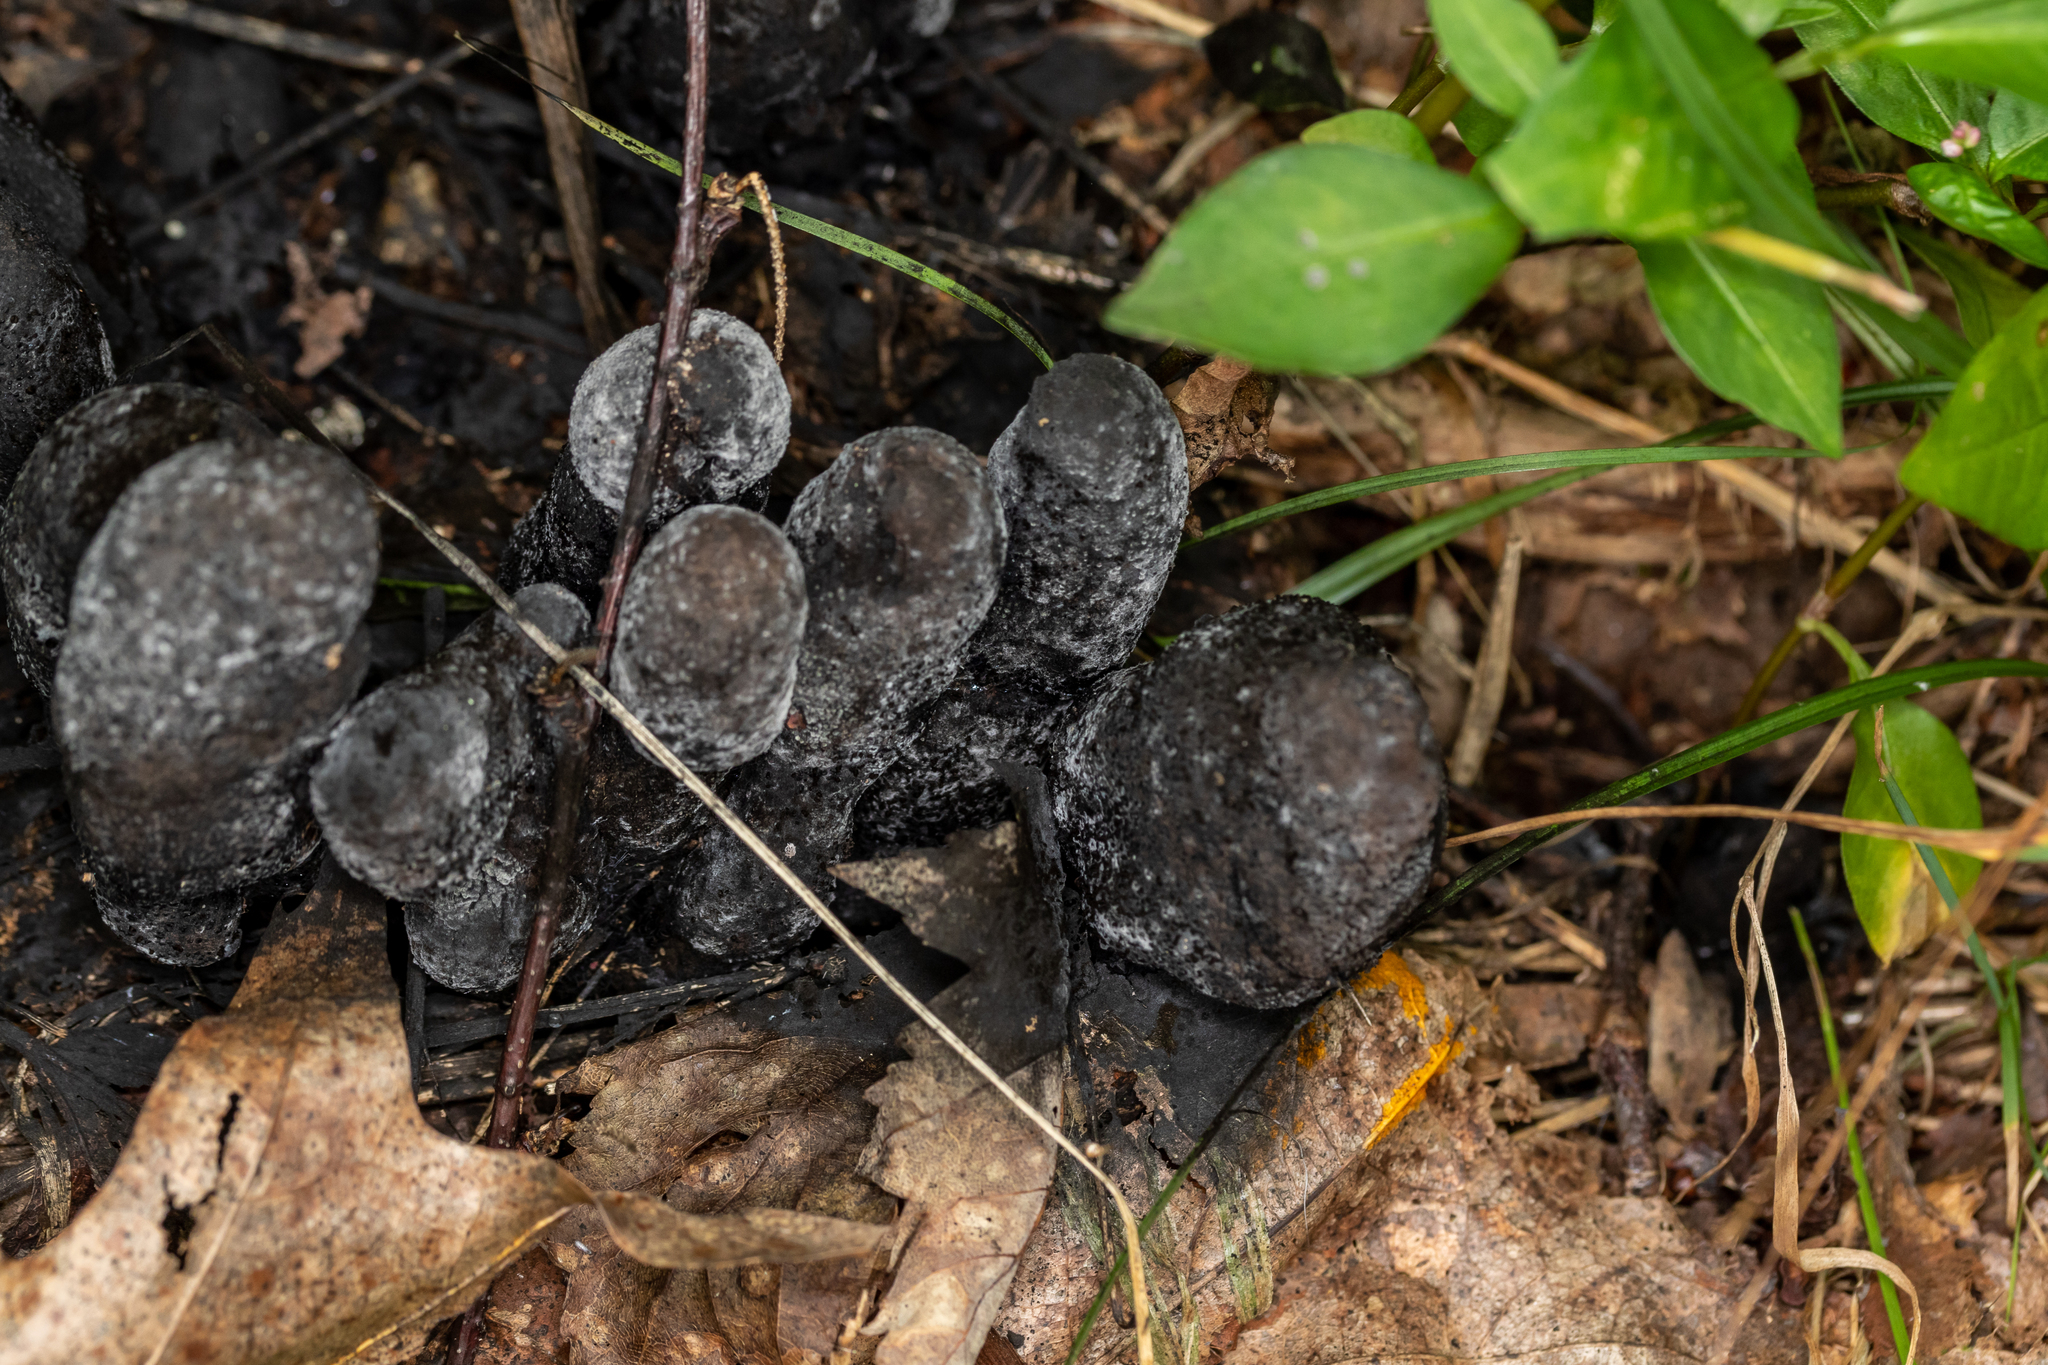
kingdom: Fungi
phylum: Ascomycota
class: Sordariomycetes
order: Xylariales
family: Xylariaceae
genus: Xylaria
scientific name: Xylaria polymorpha
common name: Dead man's fingers
